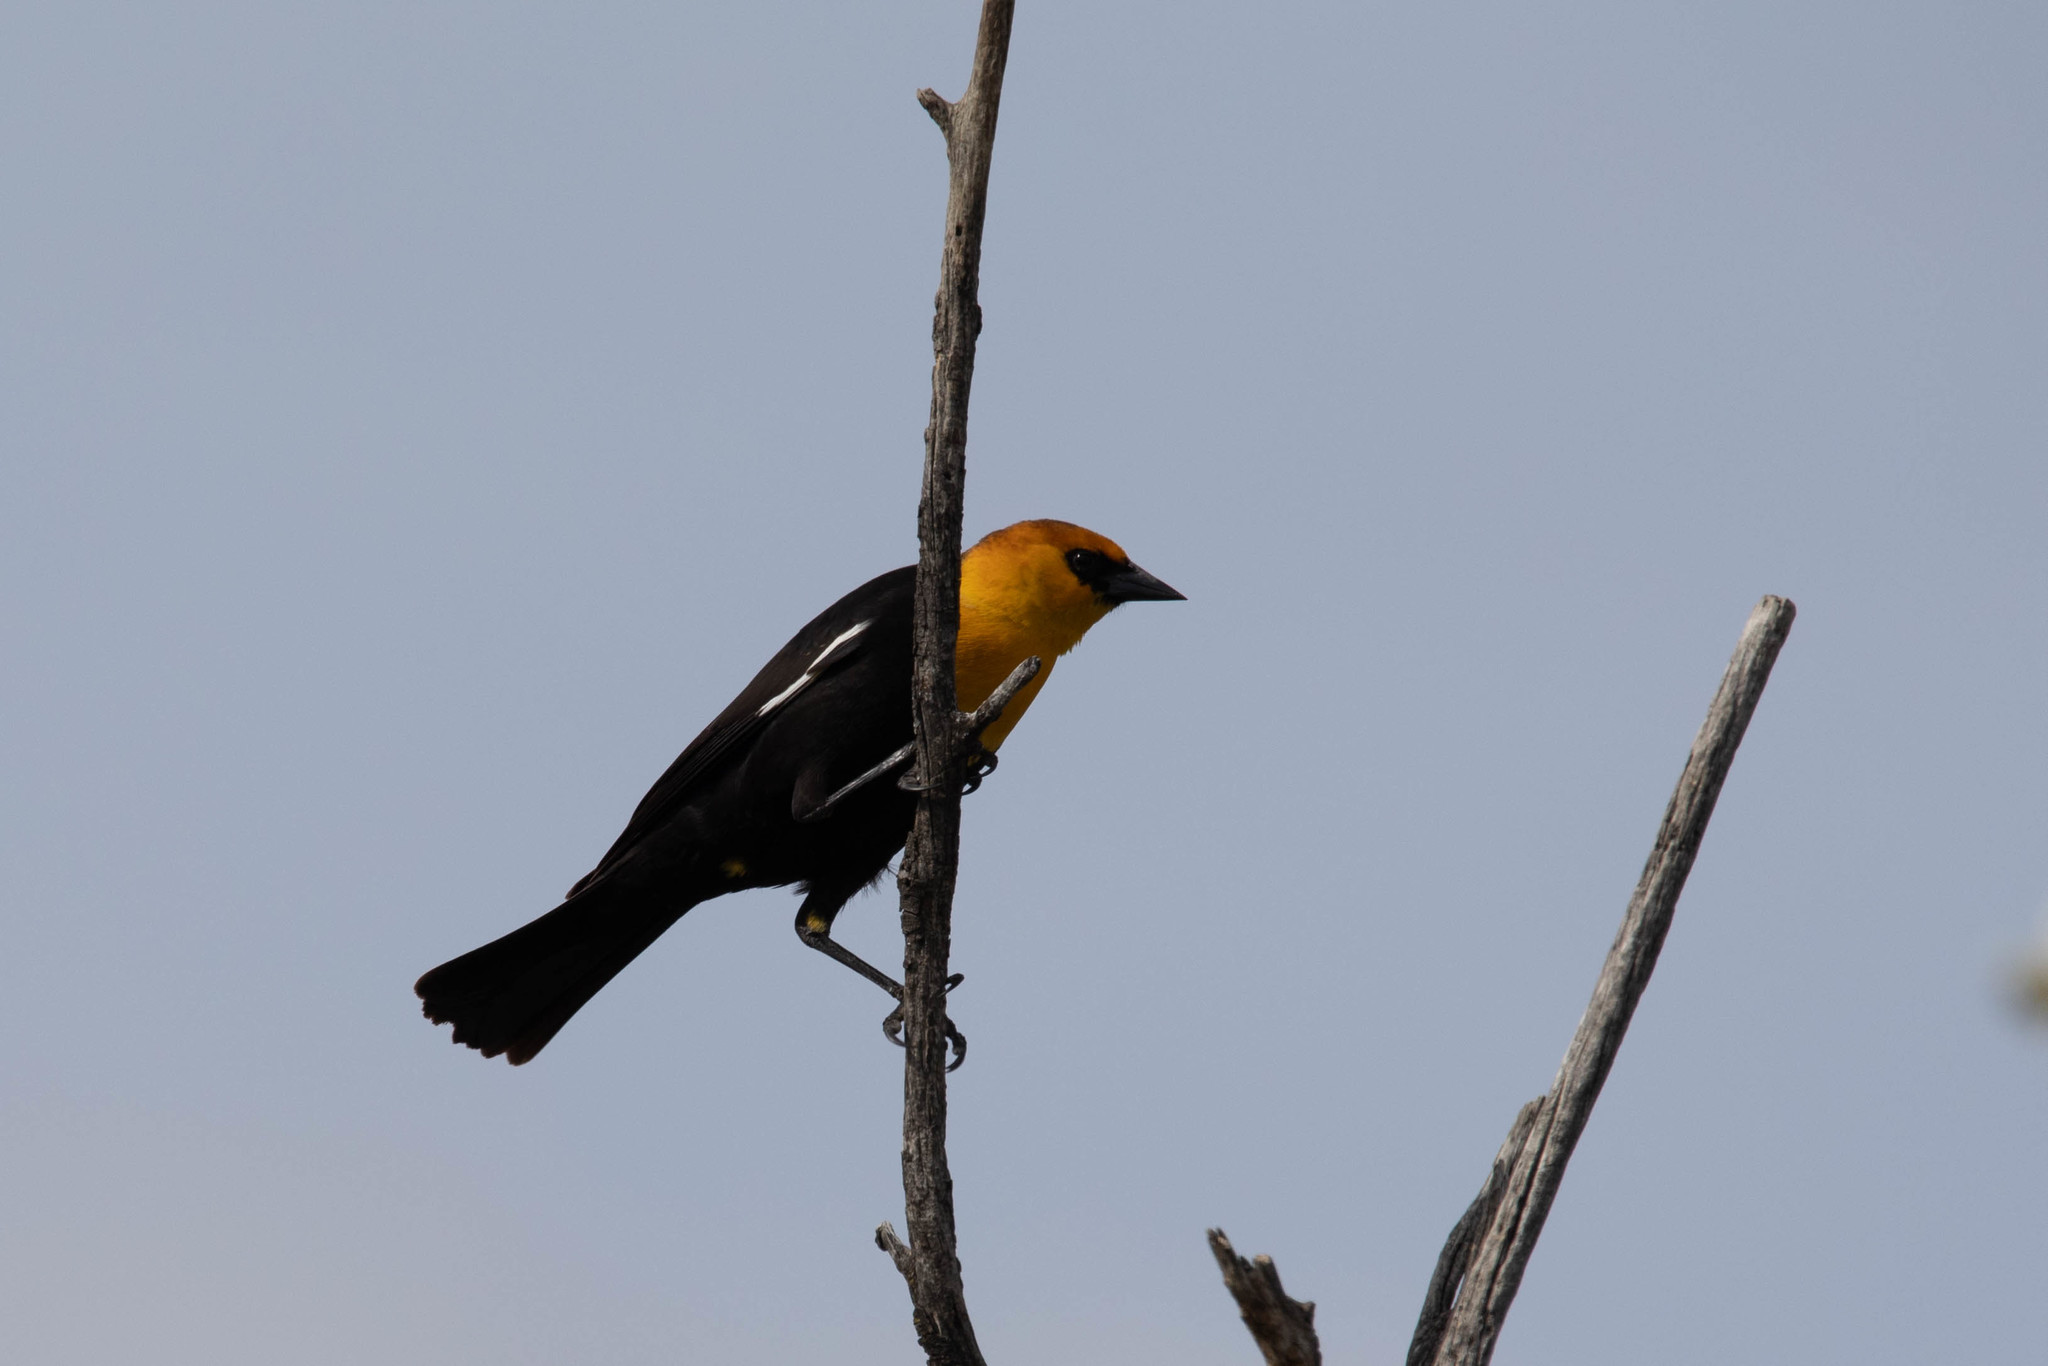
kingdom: Animalia
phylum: Chordata
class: Aves
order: Passeriformes
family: Icteridae
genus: Xanthocephalus
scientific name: Xanthocephalus xanthocephalus
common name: Yellow-headed blackbird
